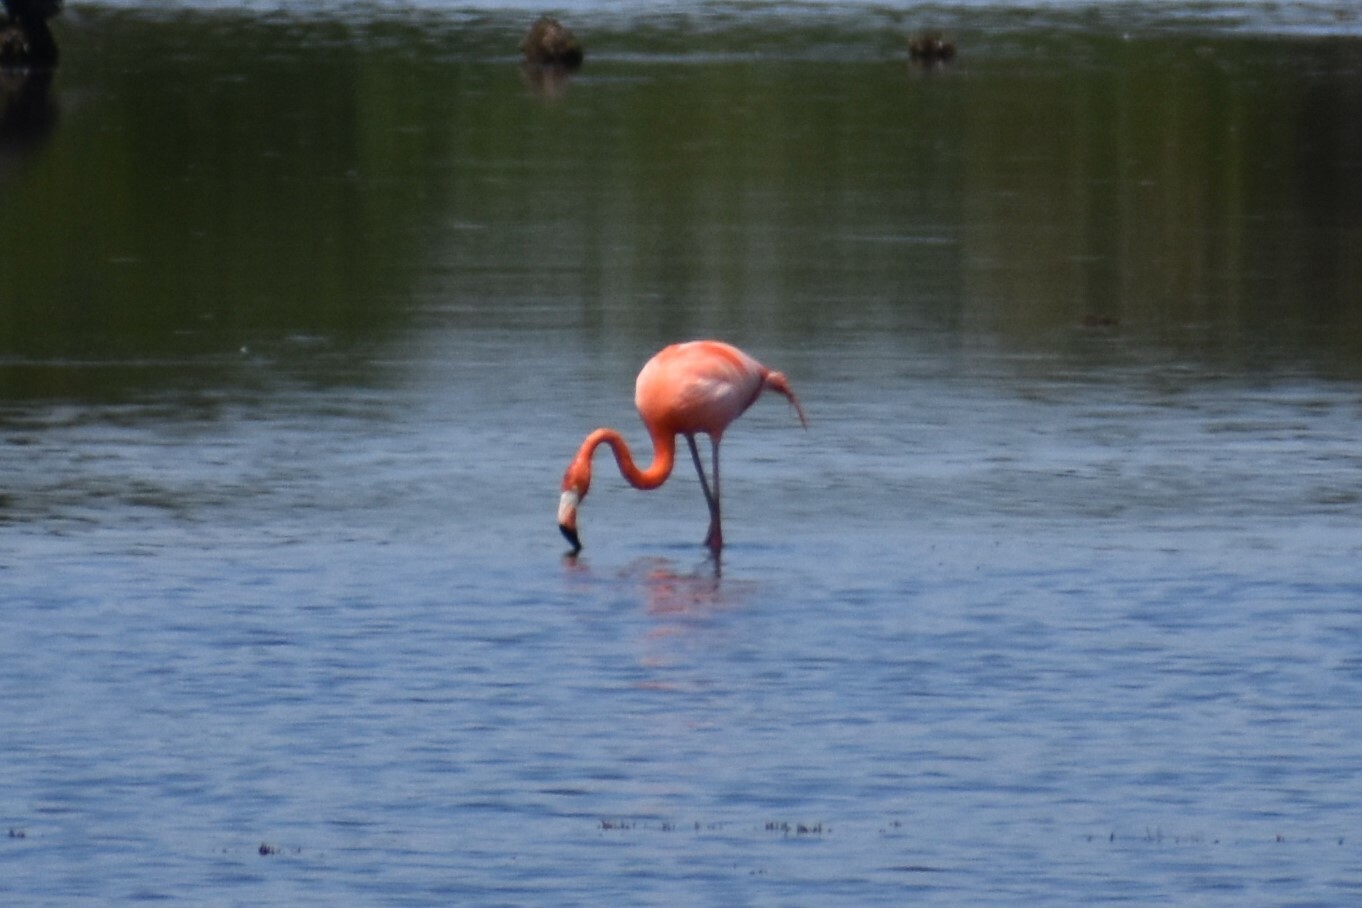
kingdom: Animalia
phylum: Chordata
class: Aves
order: Phoenicopteriformes
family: Phoenicopteridae
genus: Phoenicopterus
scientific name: Phoenicopterus ruber
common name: American flamingo
